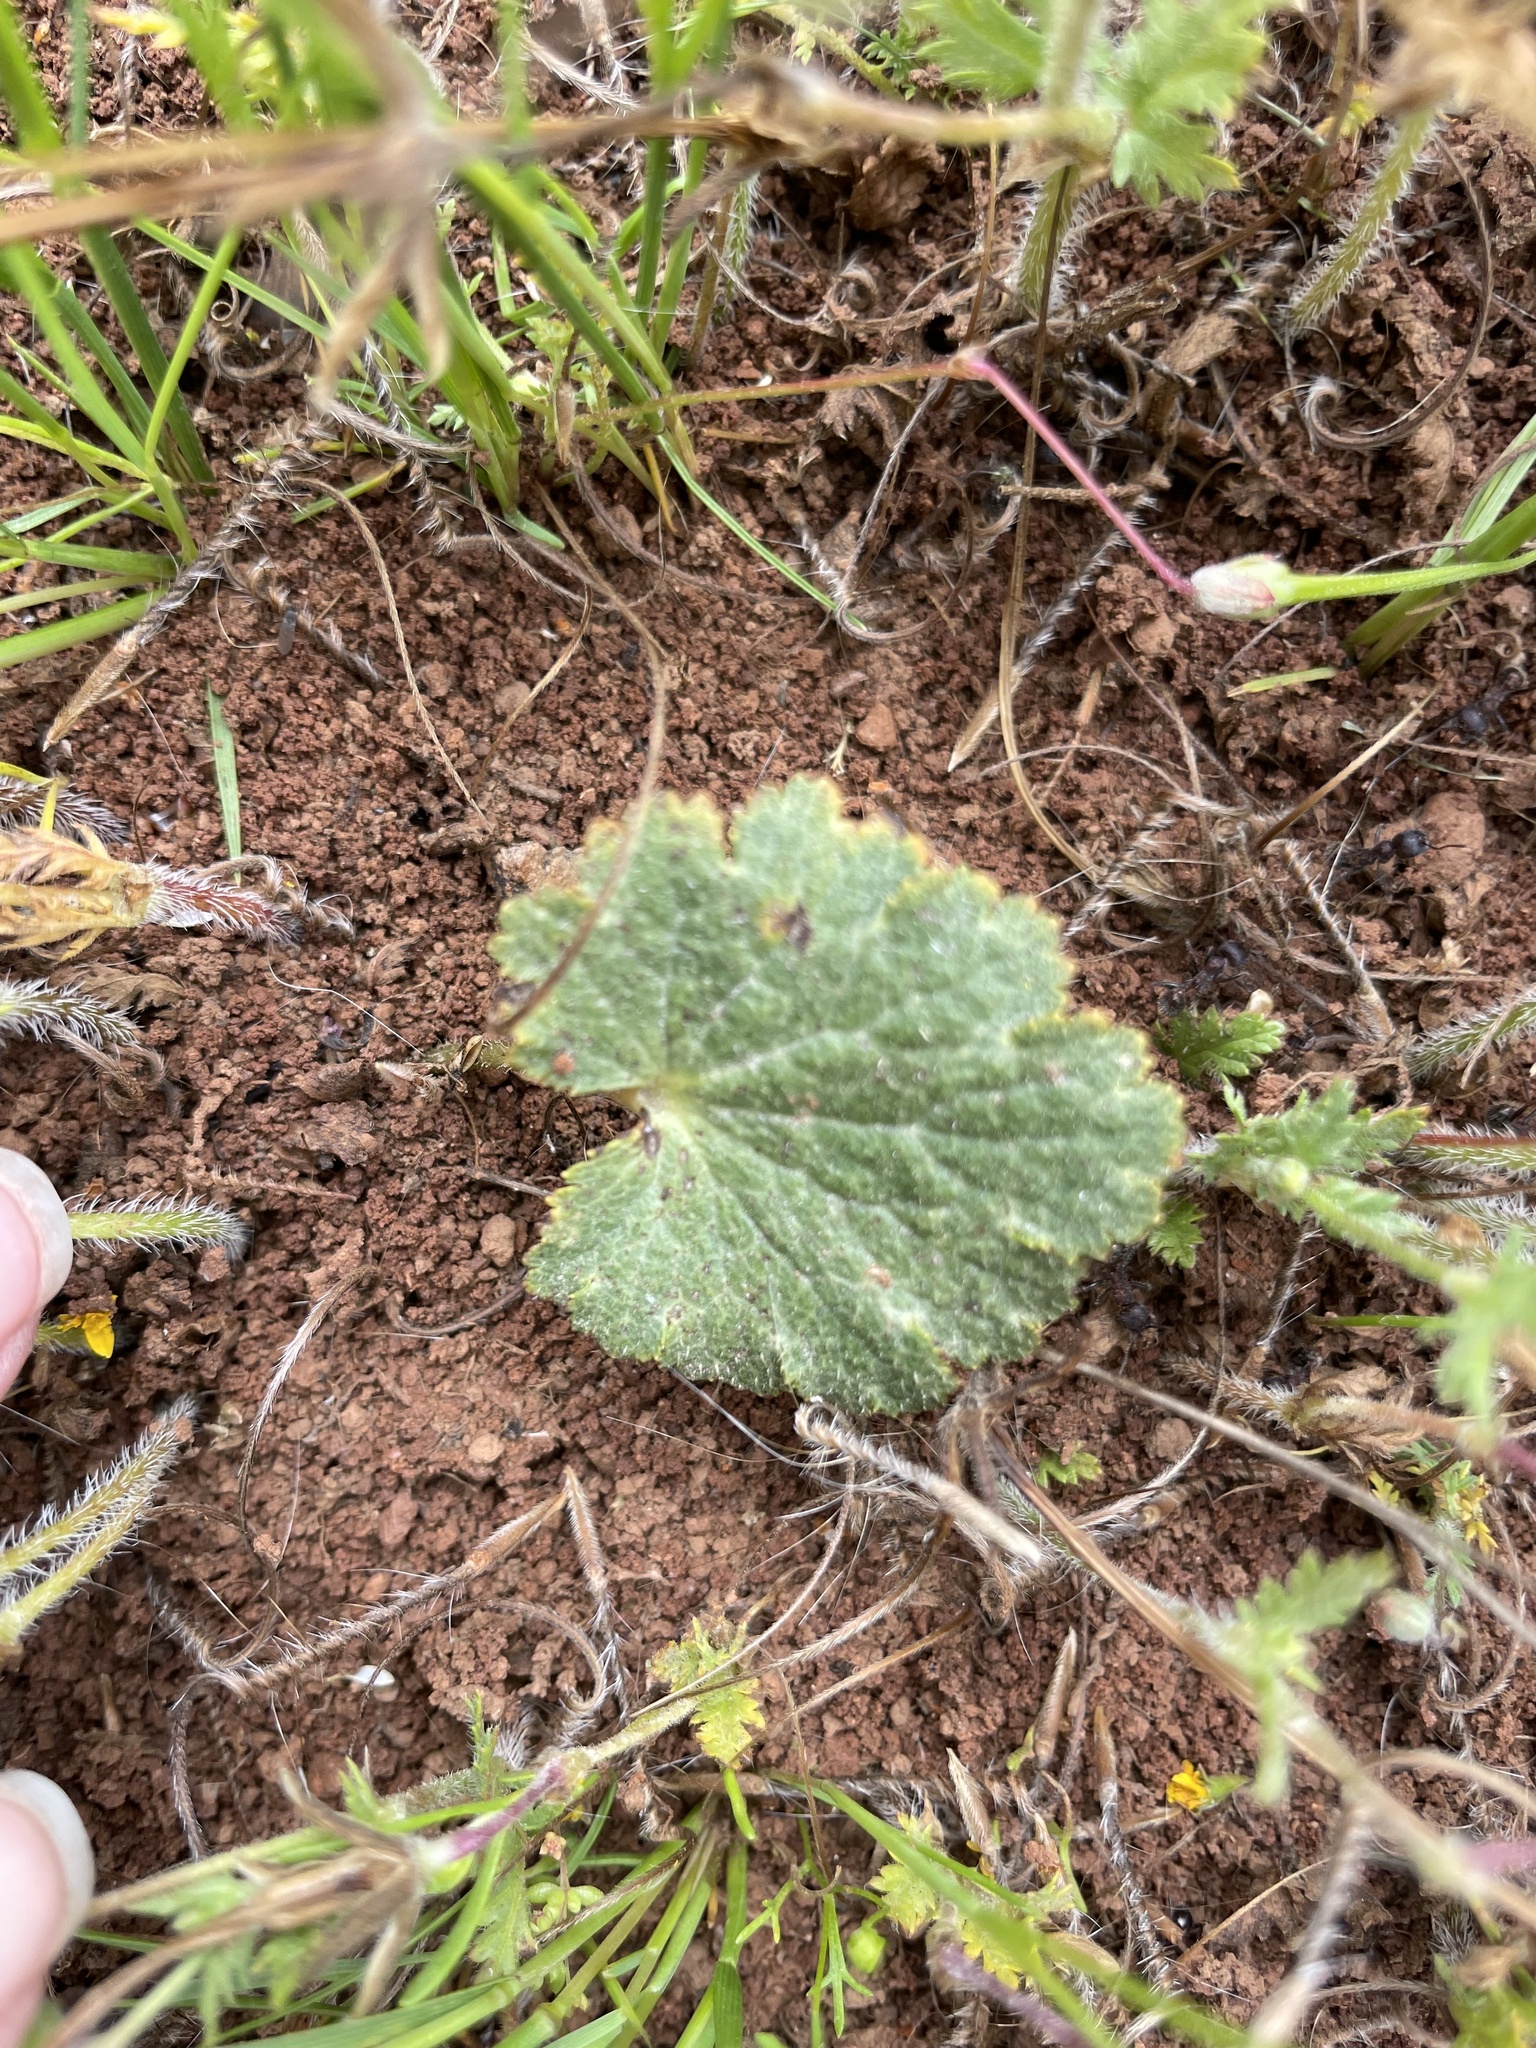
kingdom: Plantae
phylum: Tracheophyta
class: Magnoliopsida
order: Saxifragales
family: Saxifragaceae
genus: Jepsonia
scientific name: Jepsonia parryi
